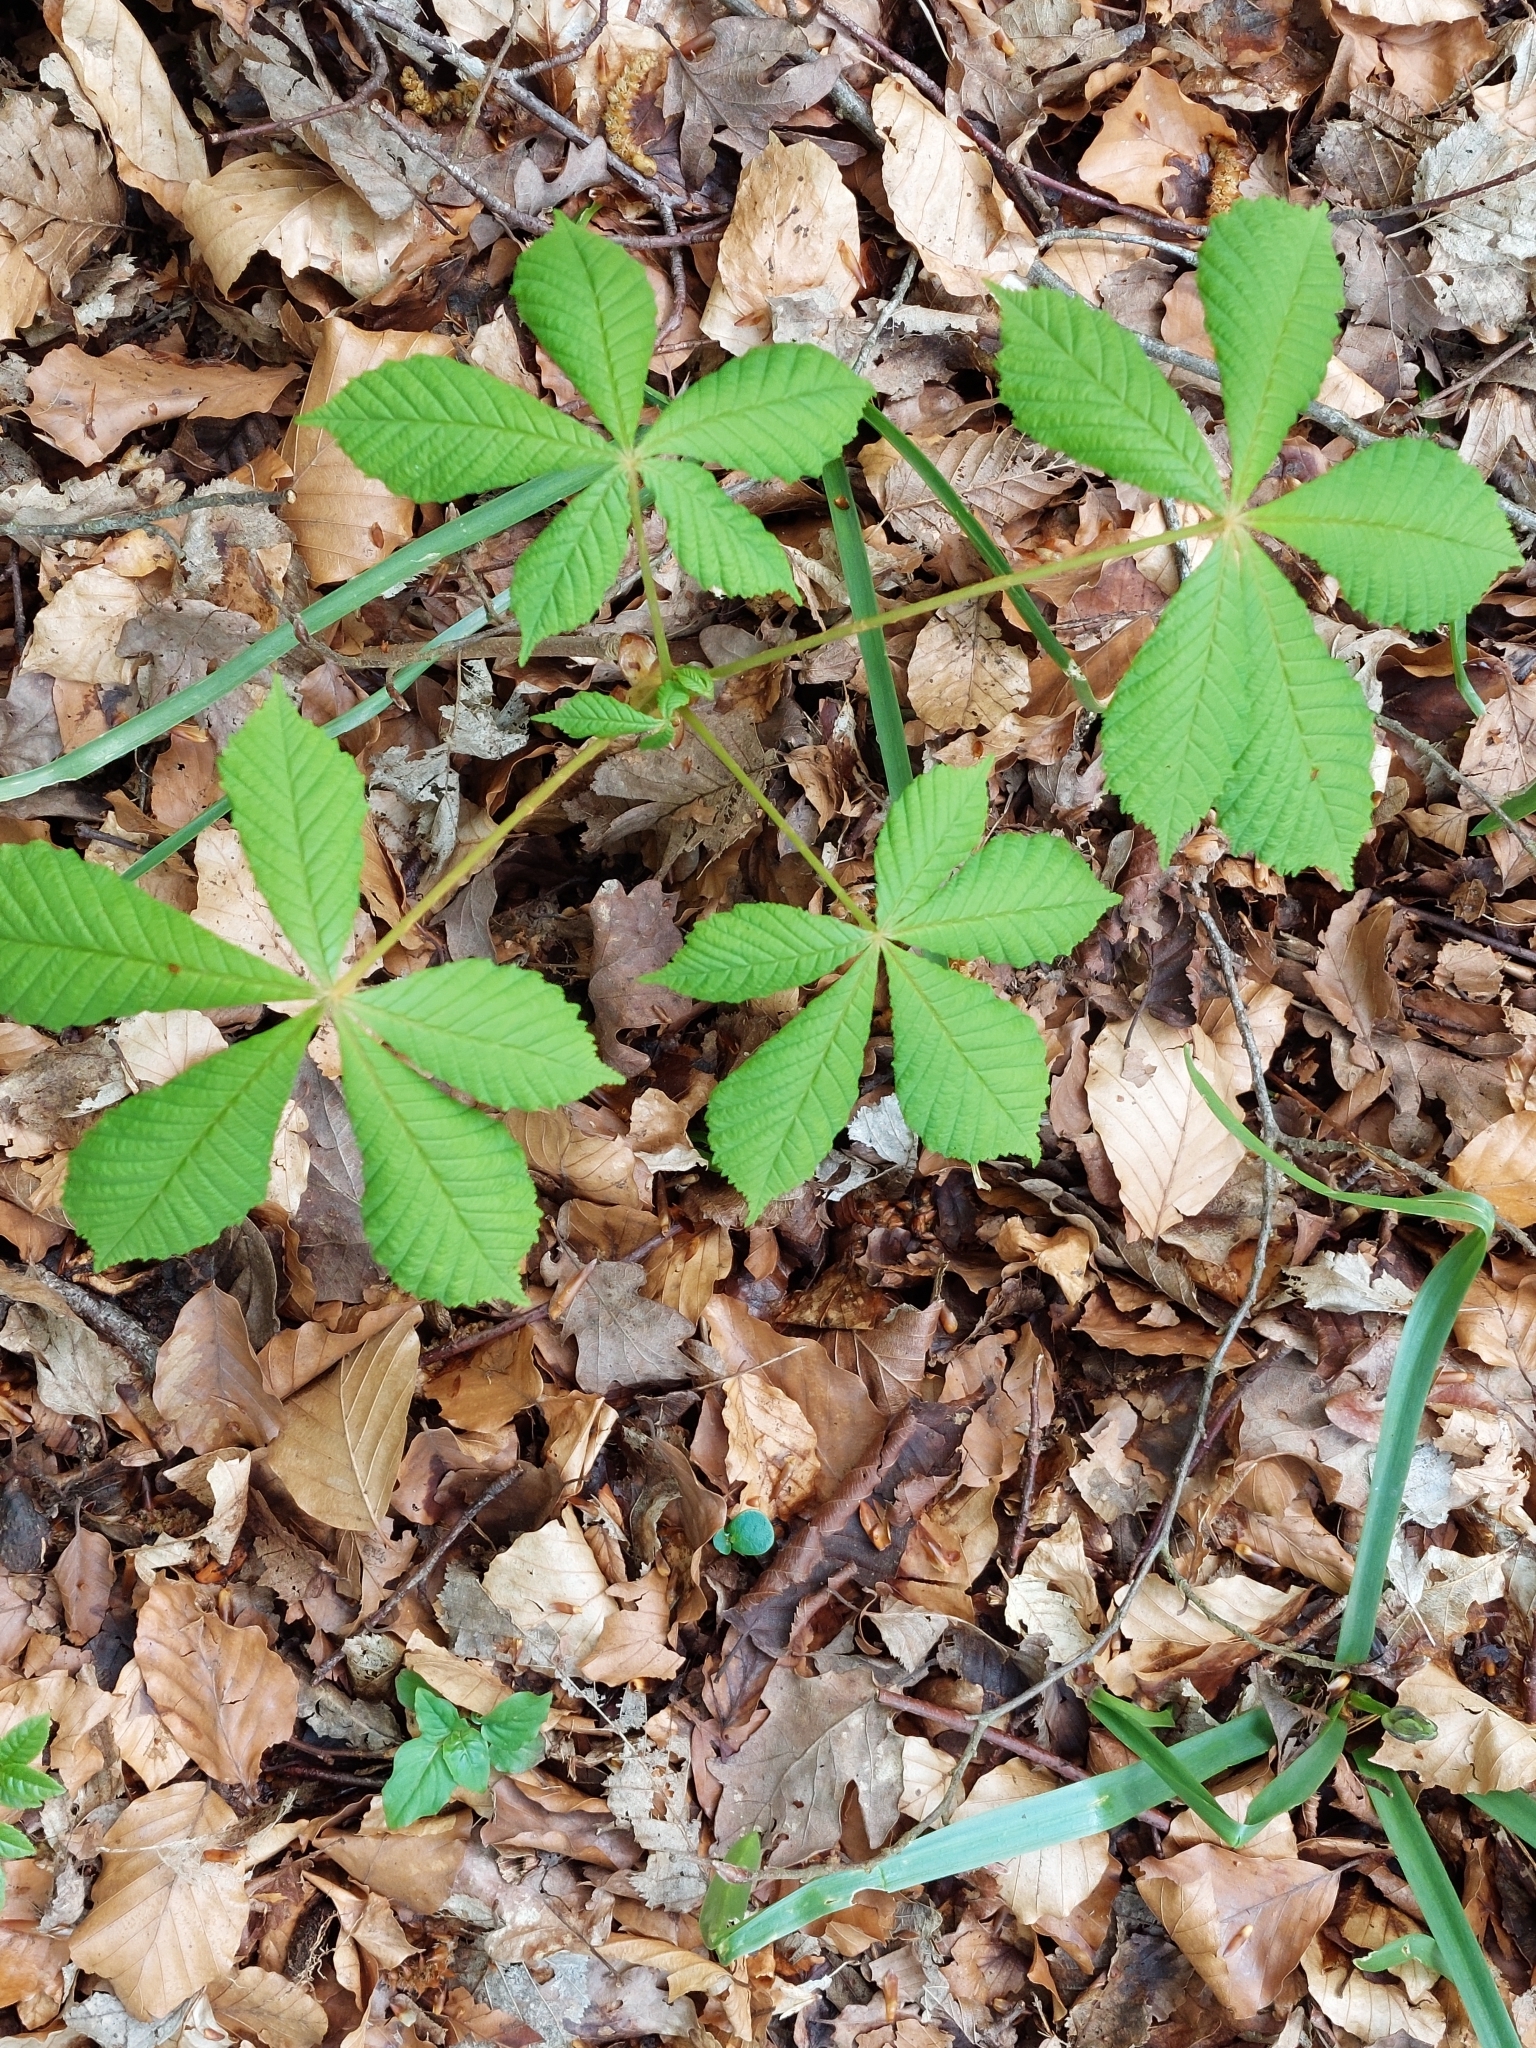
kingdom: Plantae
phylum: Tracheophyta
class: Magnoliopsida
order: Sapindales
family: Sapindaceae
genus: Aesculus
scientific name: Aesculus hippocastanum
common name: Horse-chestnut
